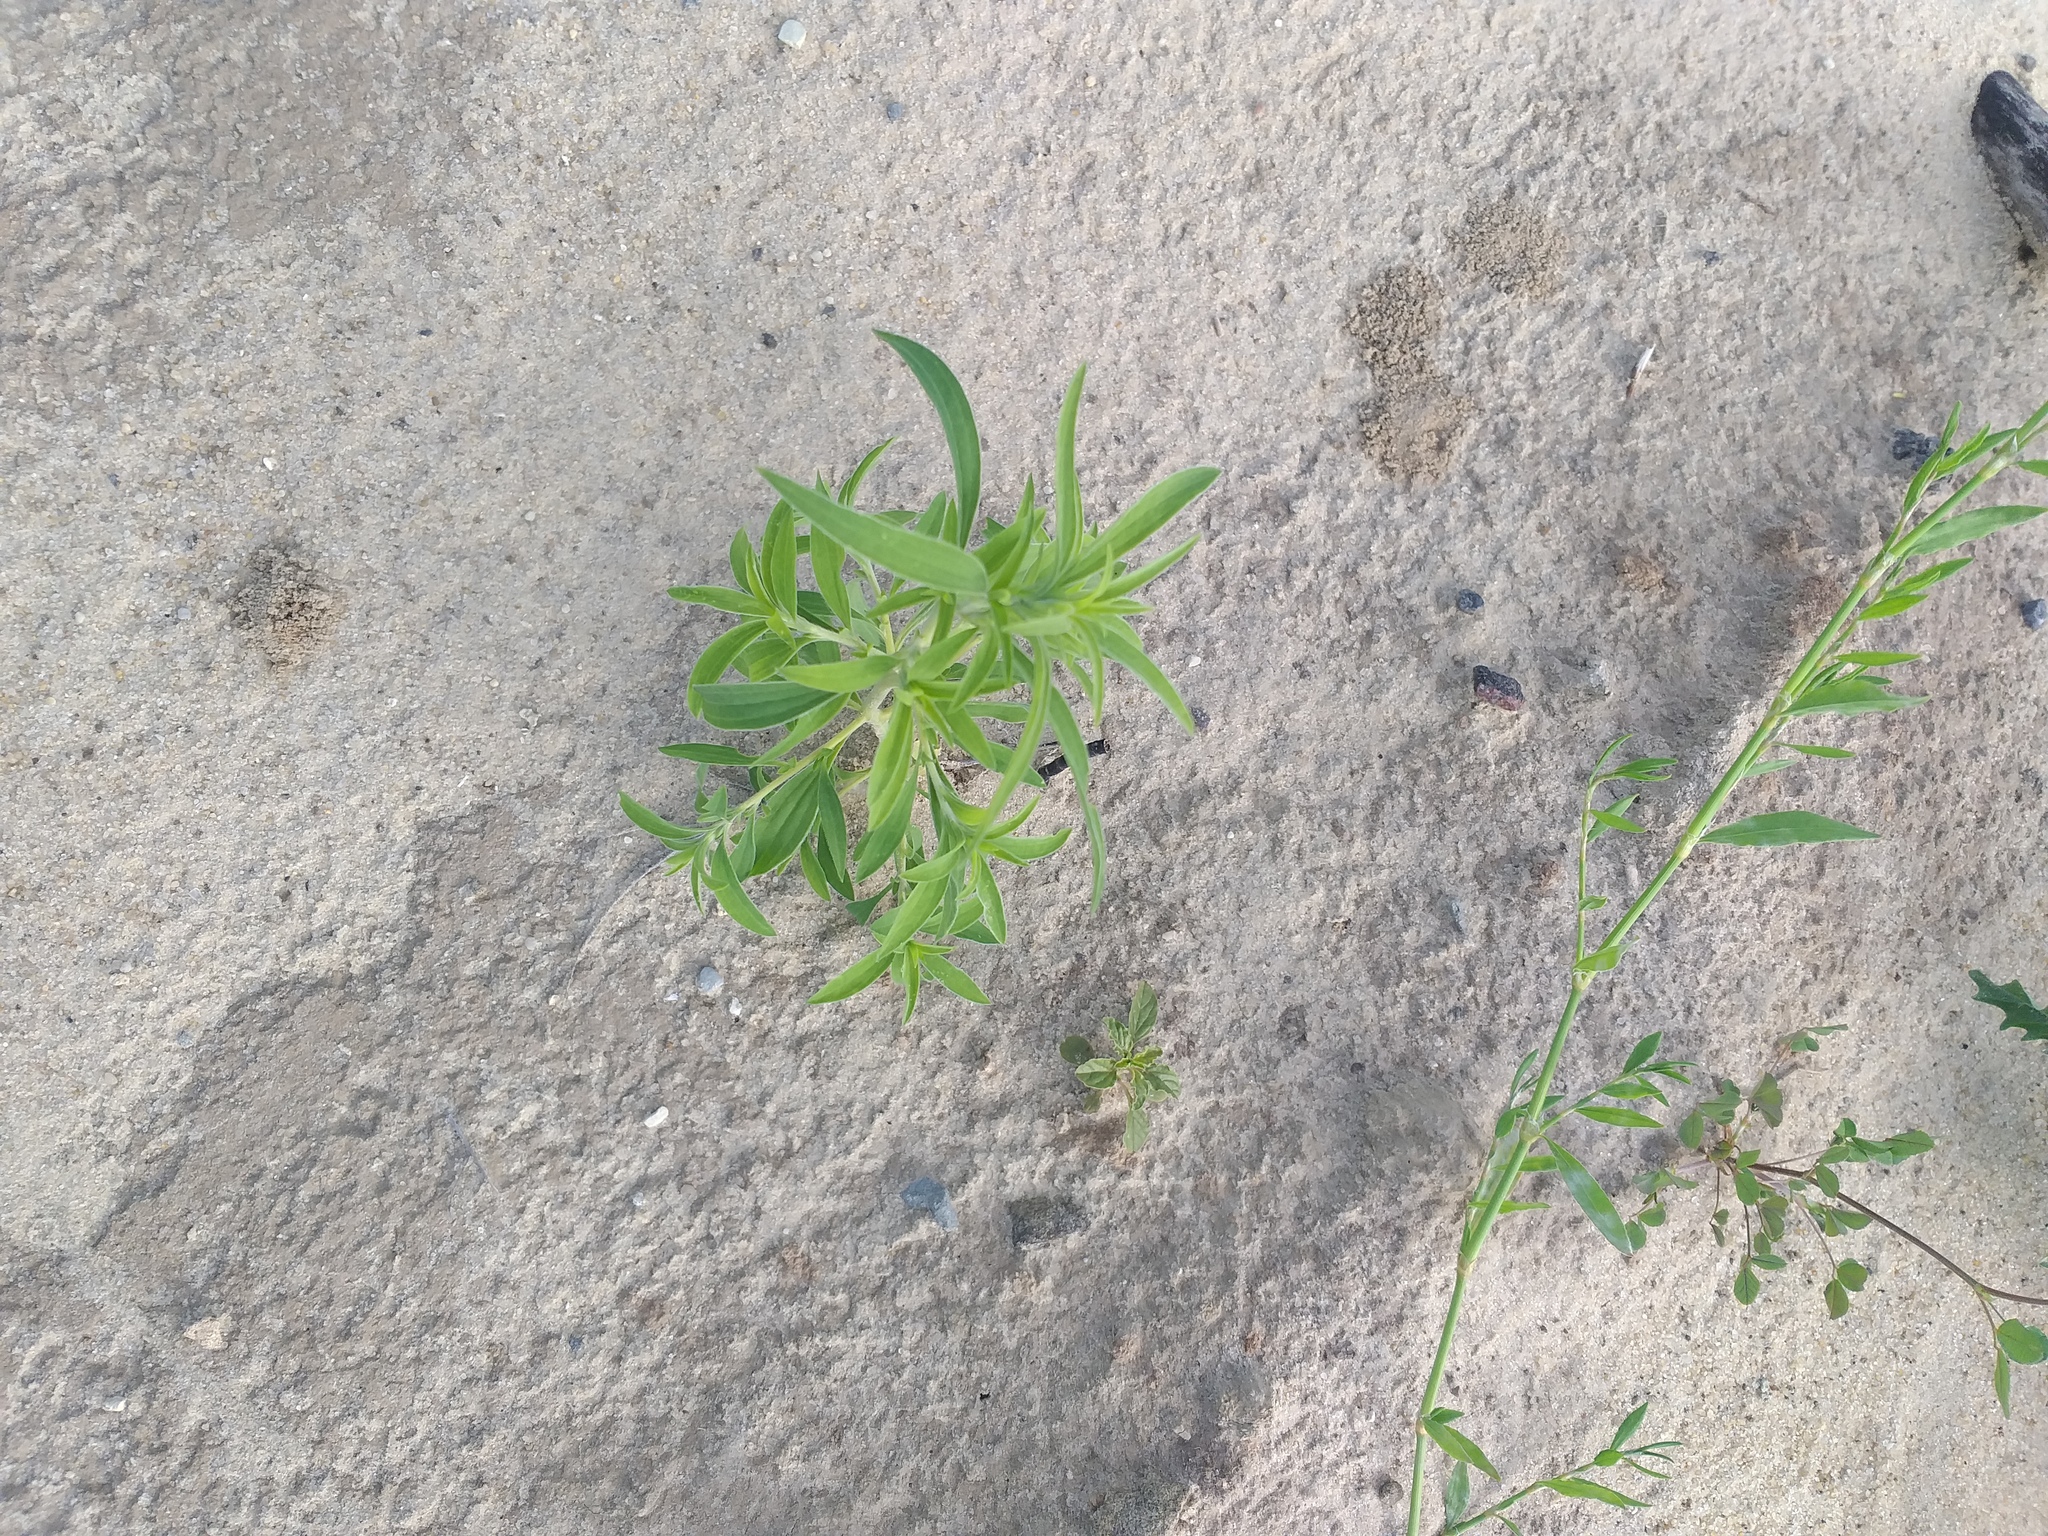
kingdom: Plantae
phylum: Tracheophyta
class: Magnoliopsida
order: Caryophyllales
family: Amaranthaceae
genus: Bassia
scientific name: Bassia scoparia
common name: Belvedere
